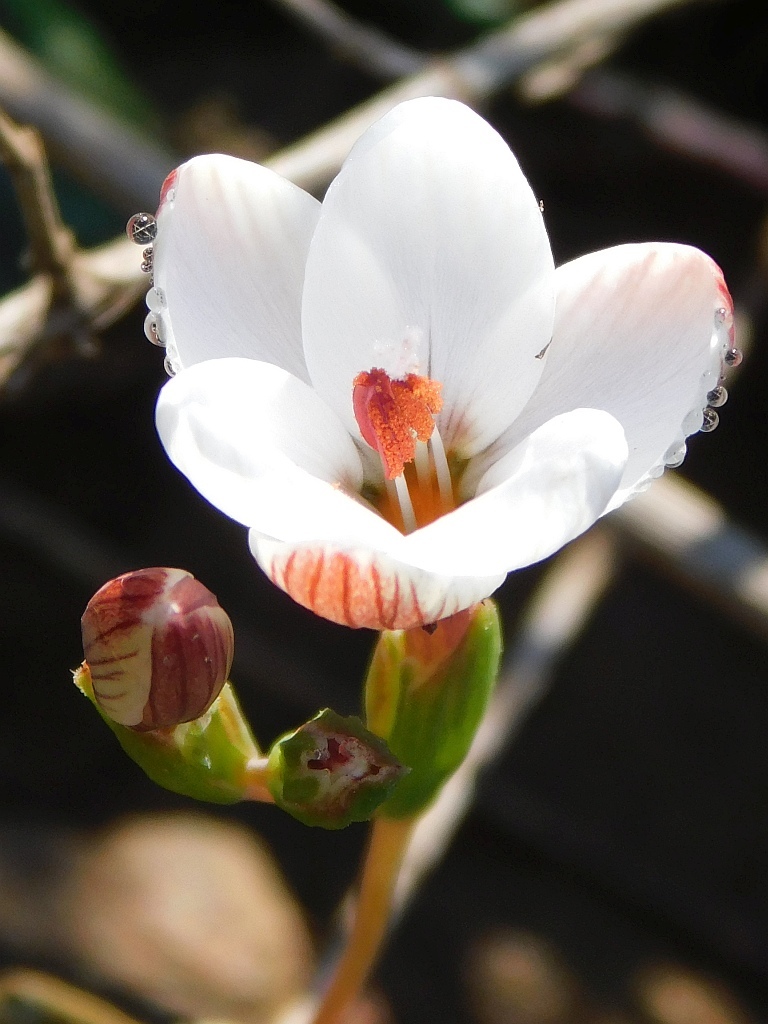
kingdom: Plantae
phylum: Tracheophyta
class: Liliopsida
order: Asparagales
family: Iridaceae
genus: Geissorhiza
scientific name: Geissorhiza ovata
